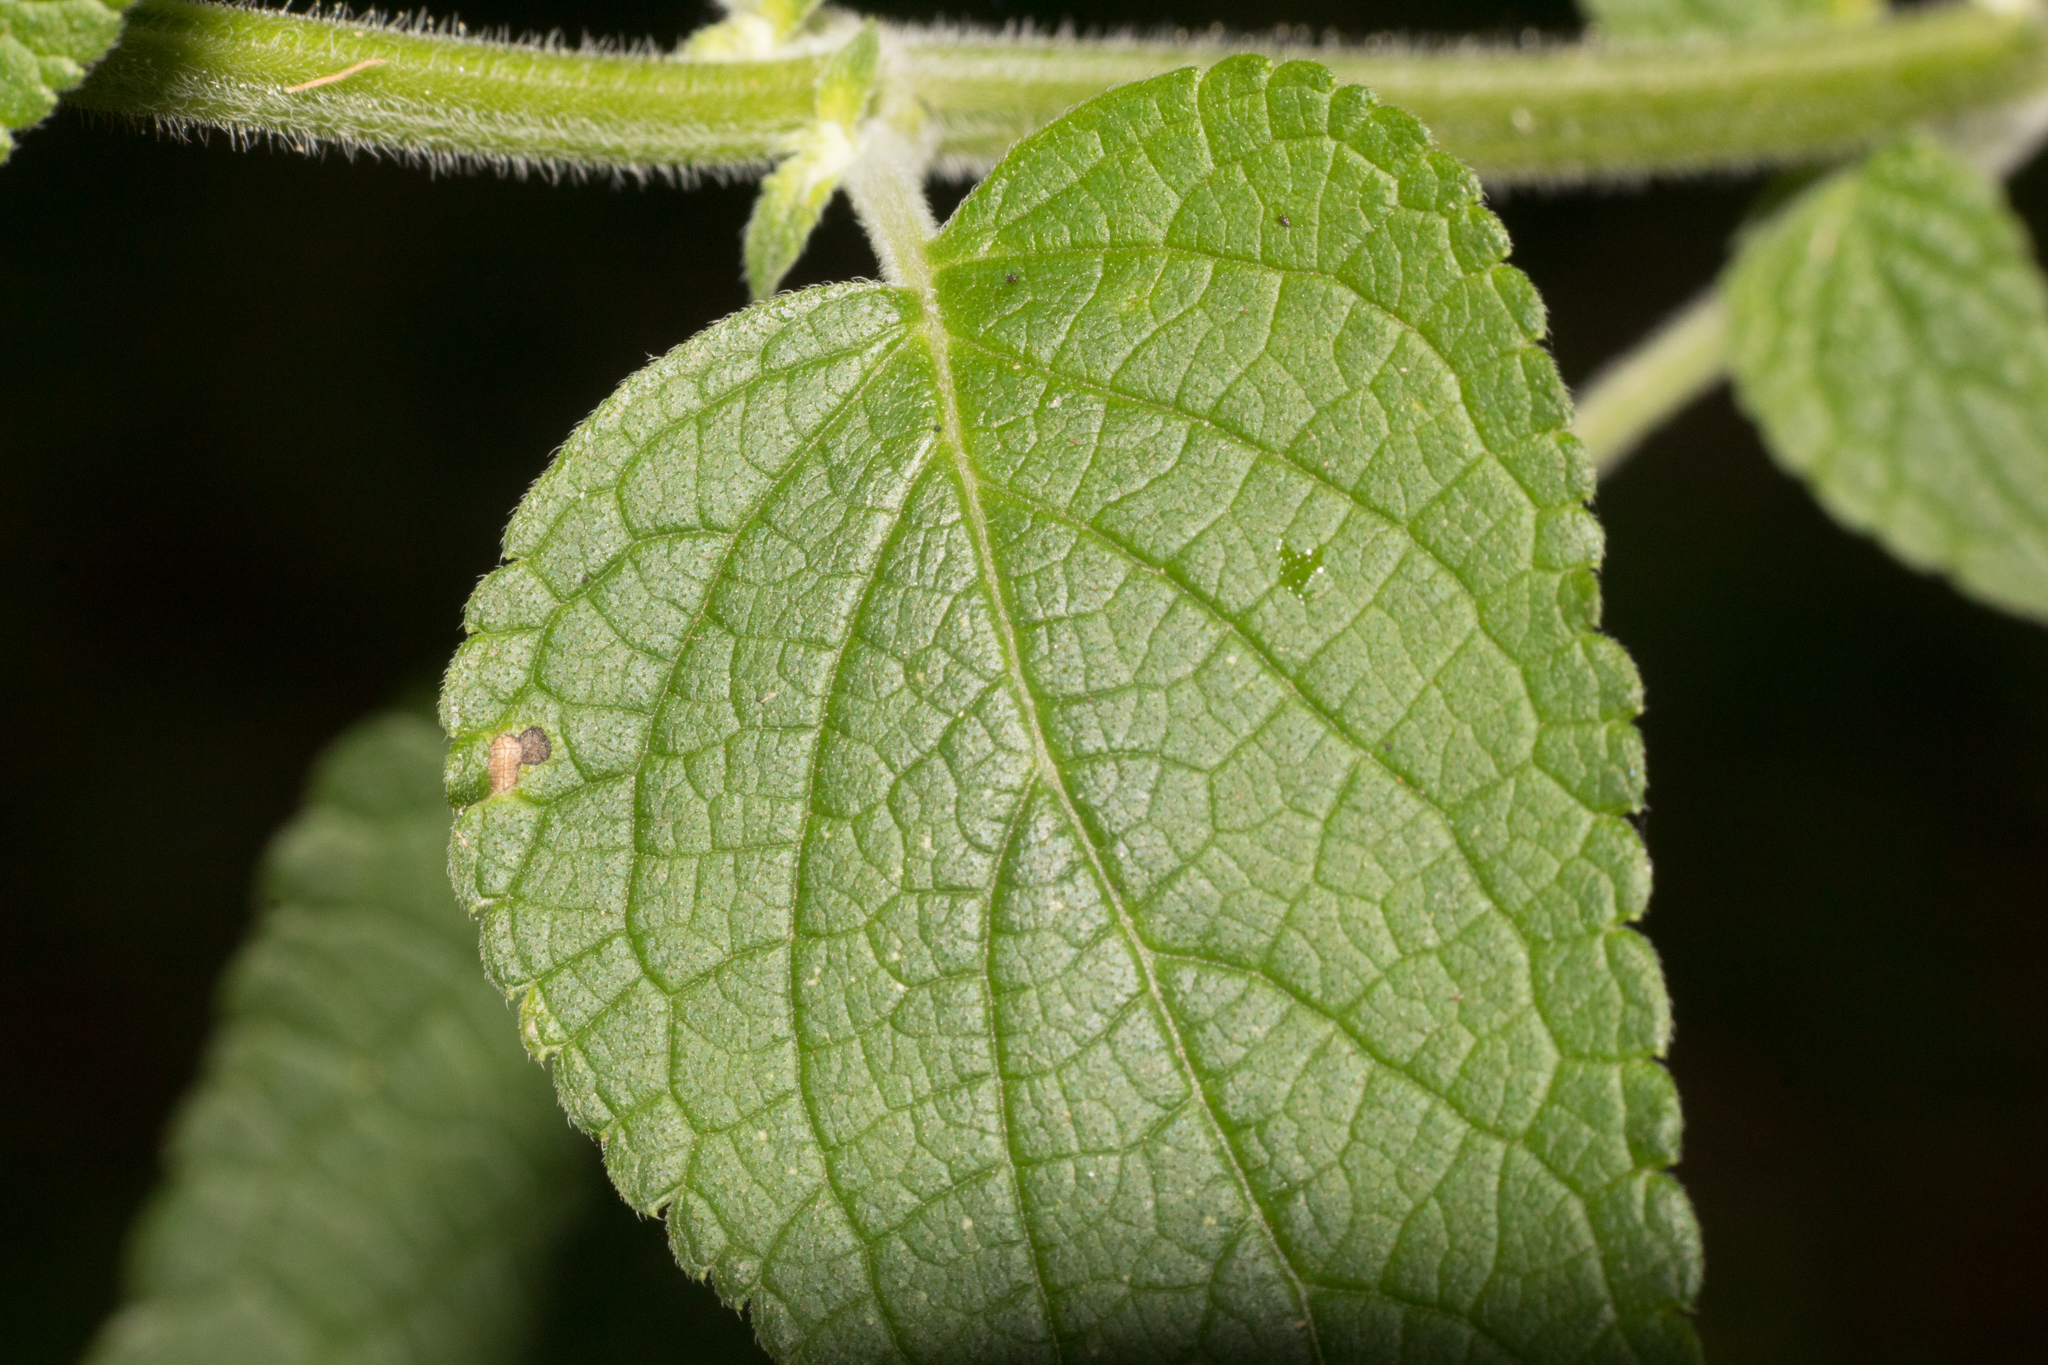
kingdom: Plantae
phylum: Tracheophyta
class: Magnoliopsida
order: Lamiales
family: Lamiaceae
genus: Salvia
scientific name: Salvia guaranitica
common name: Anise-scented sage
